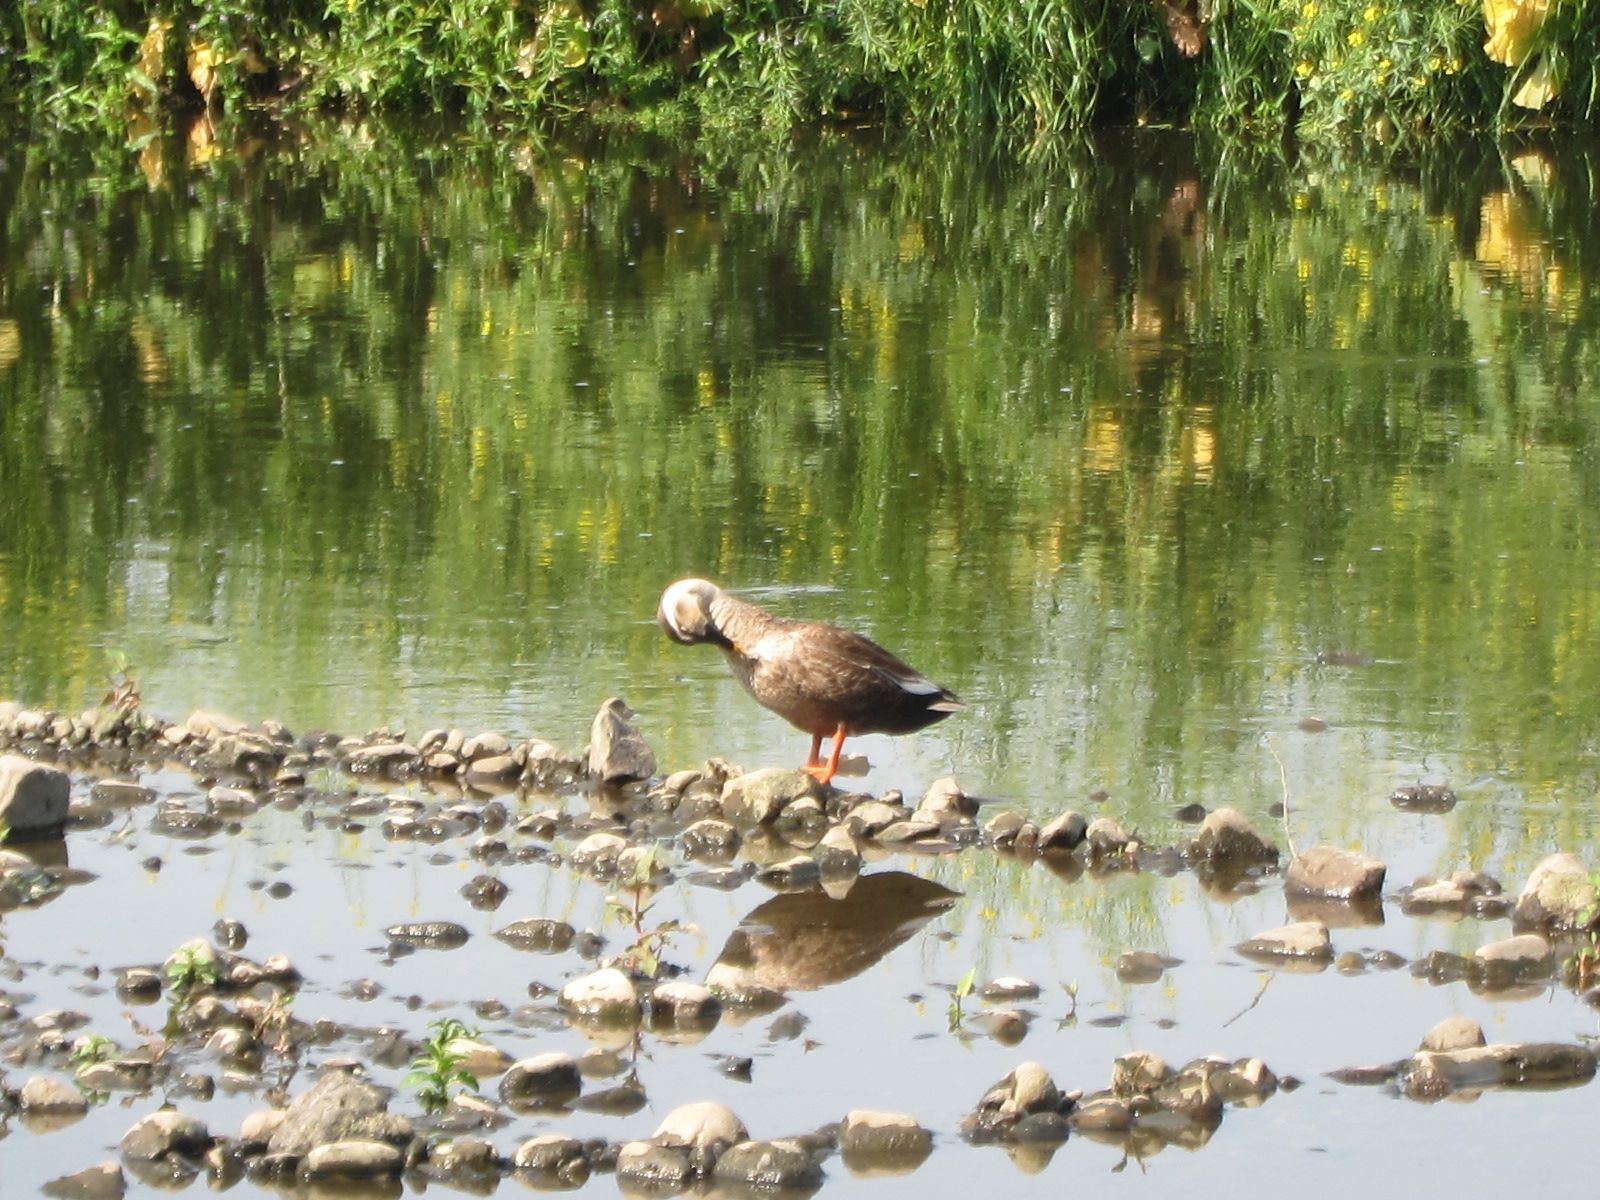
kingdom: Animalia
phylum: Chordata
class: Aves
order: Anseriformes
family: Anatidae
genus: Anas
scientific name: Anas zonorhyncha
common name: Eastern spot-billed duck
